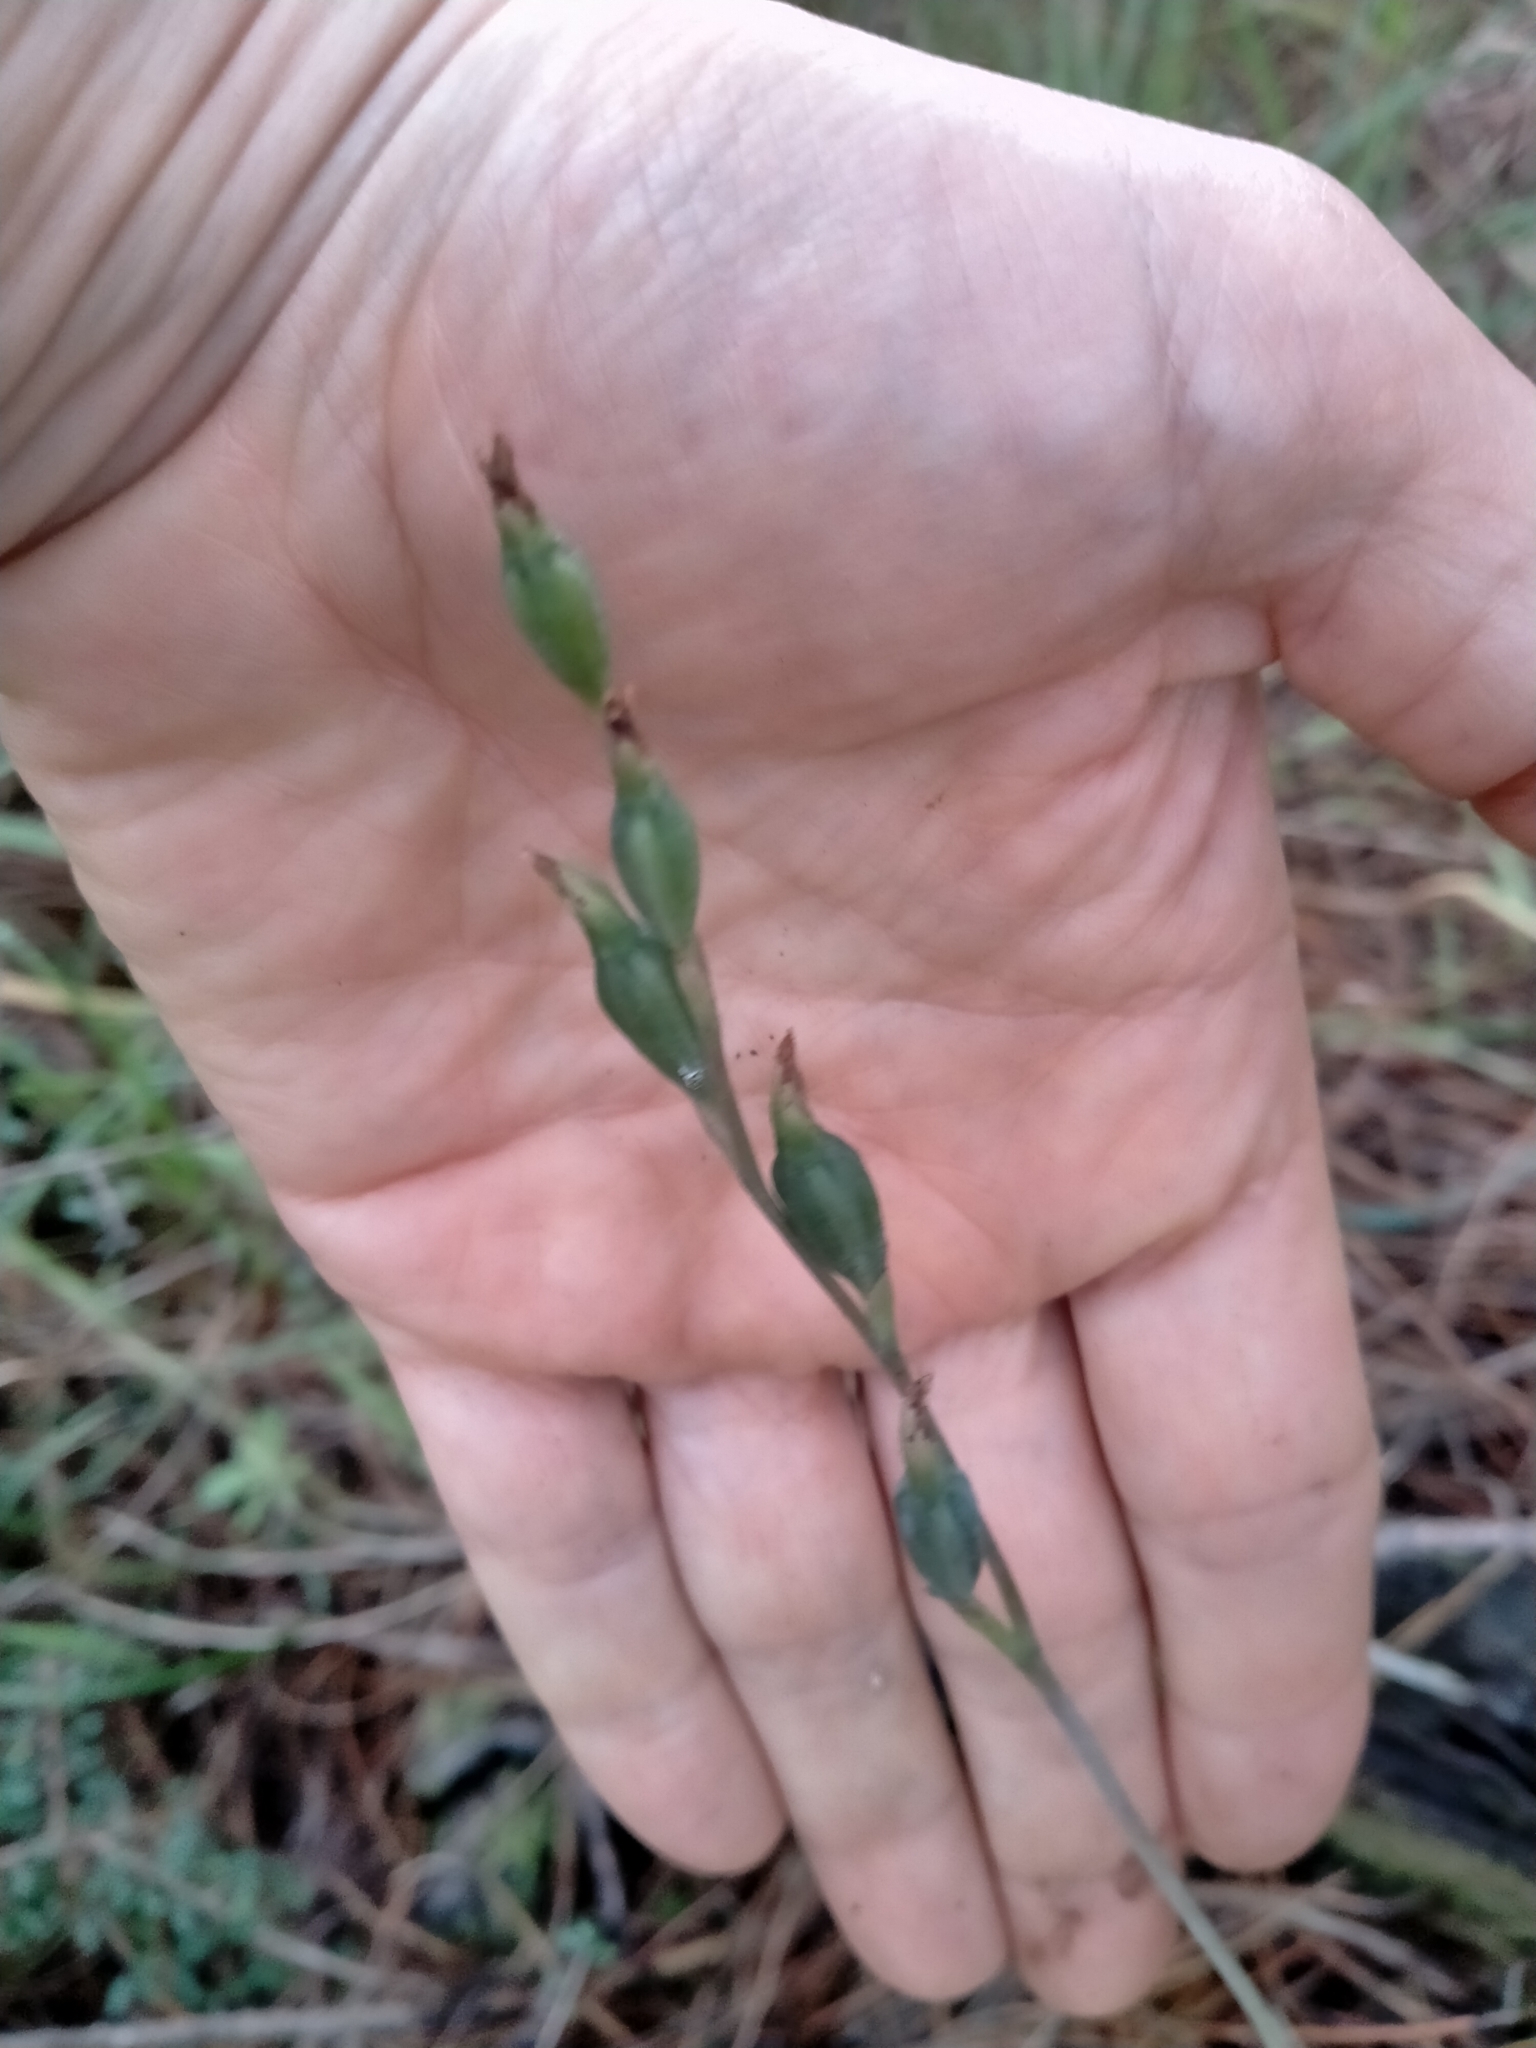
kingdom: Plantae
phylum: Tracheophyta
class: Liliopsida
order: Asparagales
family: Orchidaceae
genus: Thelymitra
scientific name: Thelymitra longifolia
